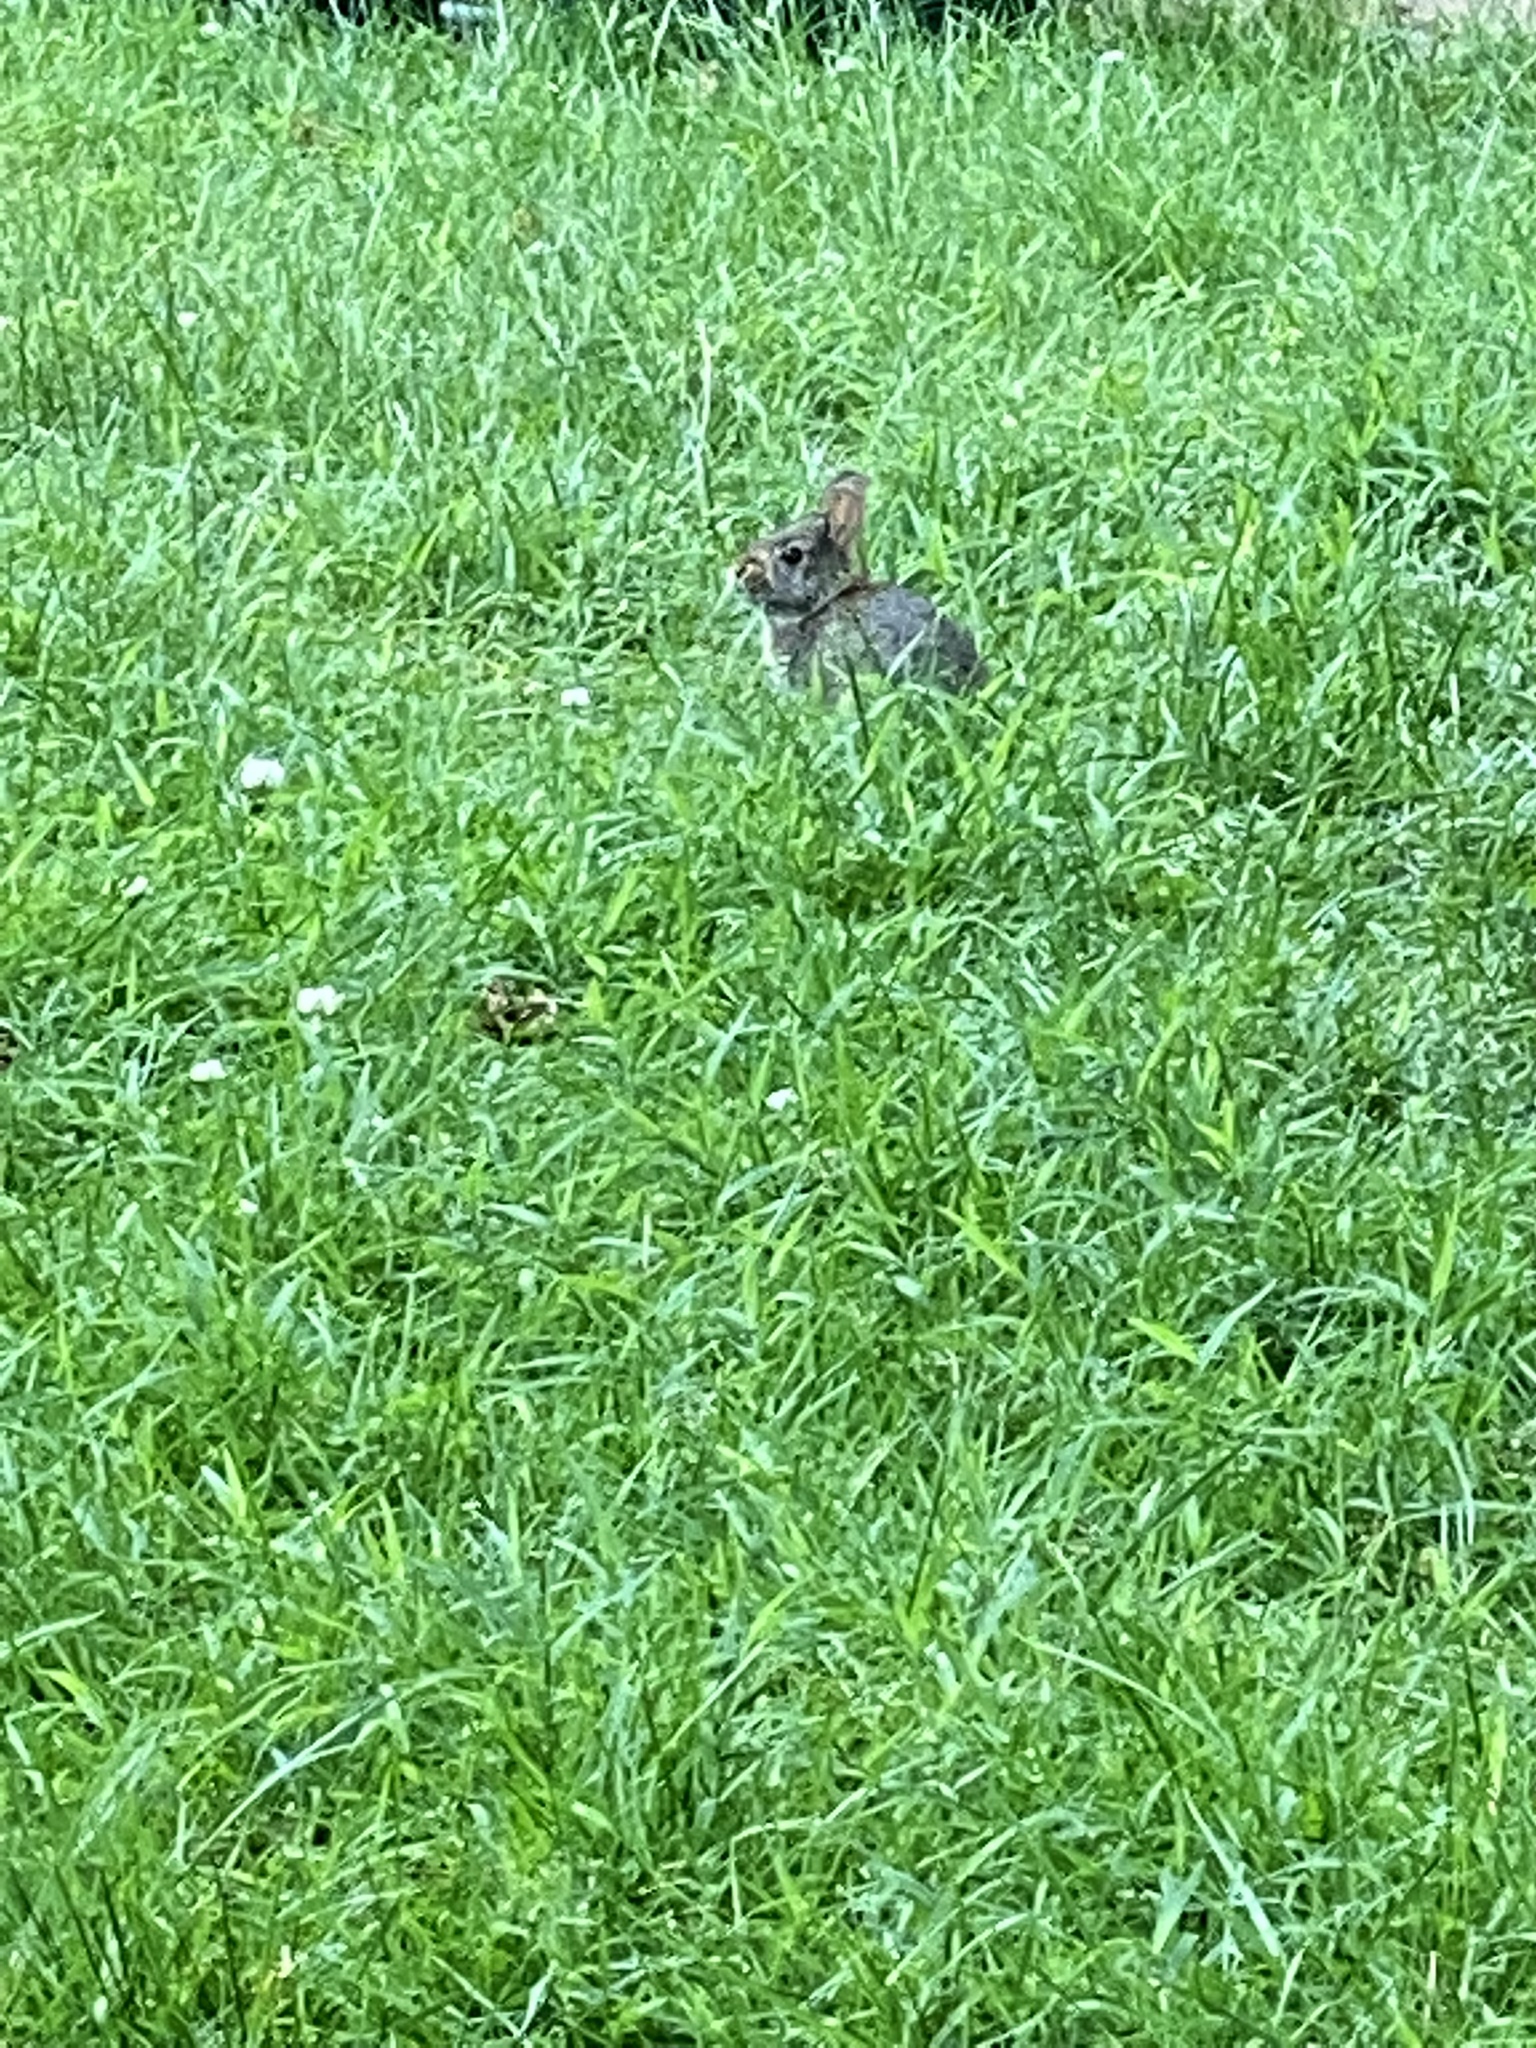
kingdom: Animalia
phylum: Chordata
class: Mammalia
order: Lagomorpha
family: Leporidae
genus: Sylvilagus
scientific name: Sylvilagus floridanus
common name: Eastern cottontail
